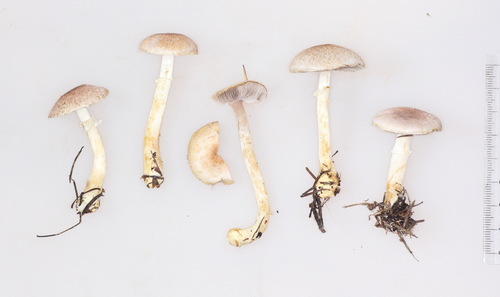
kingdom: Fungi
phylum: Basidiomycota
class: Agaricomycetes
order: Agaricales
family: Agaricaceae
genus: Agaricus
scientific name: Agaricus semotus
